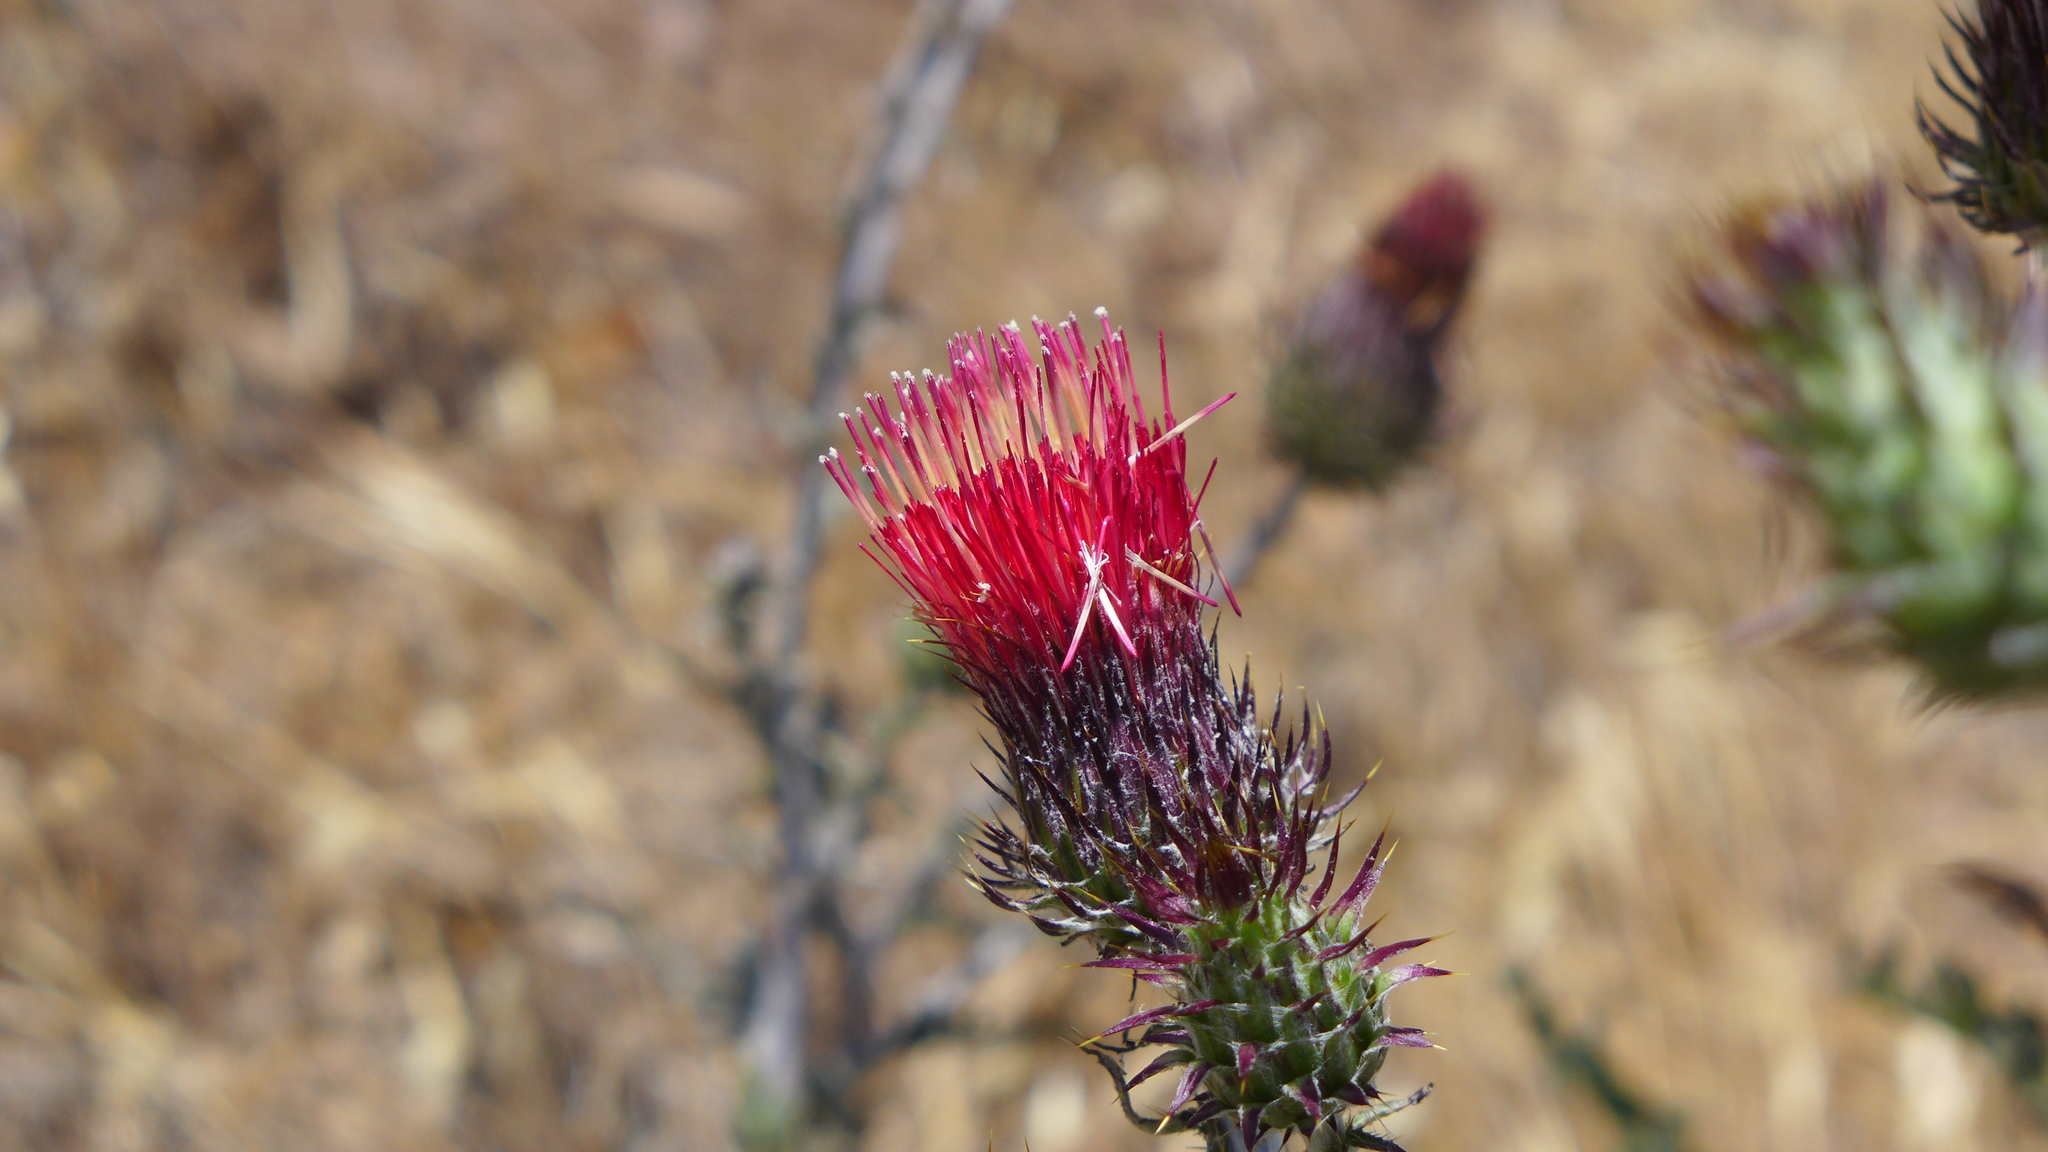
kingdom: Plantae
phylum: Tracheophyta
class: Magnoliopsida
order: Asterales
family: Asteraceae
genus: Cirsium
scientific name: Cirsium occidentale
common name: Western thistle
